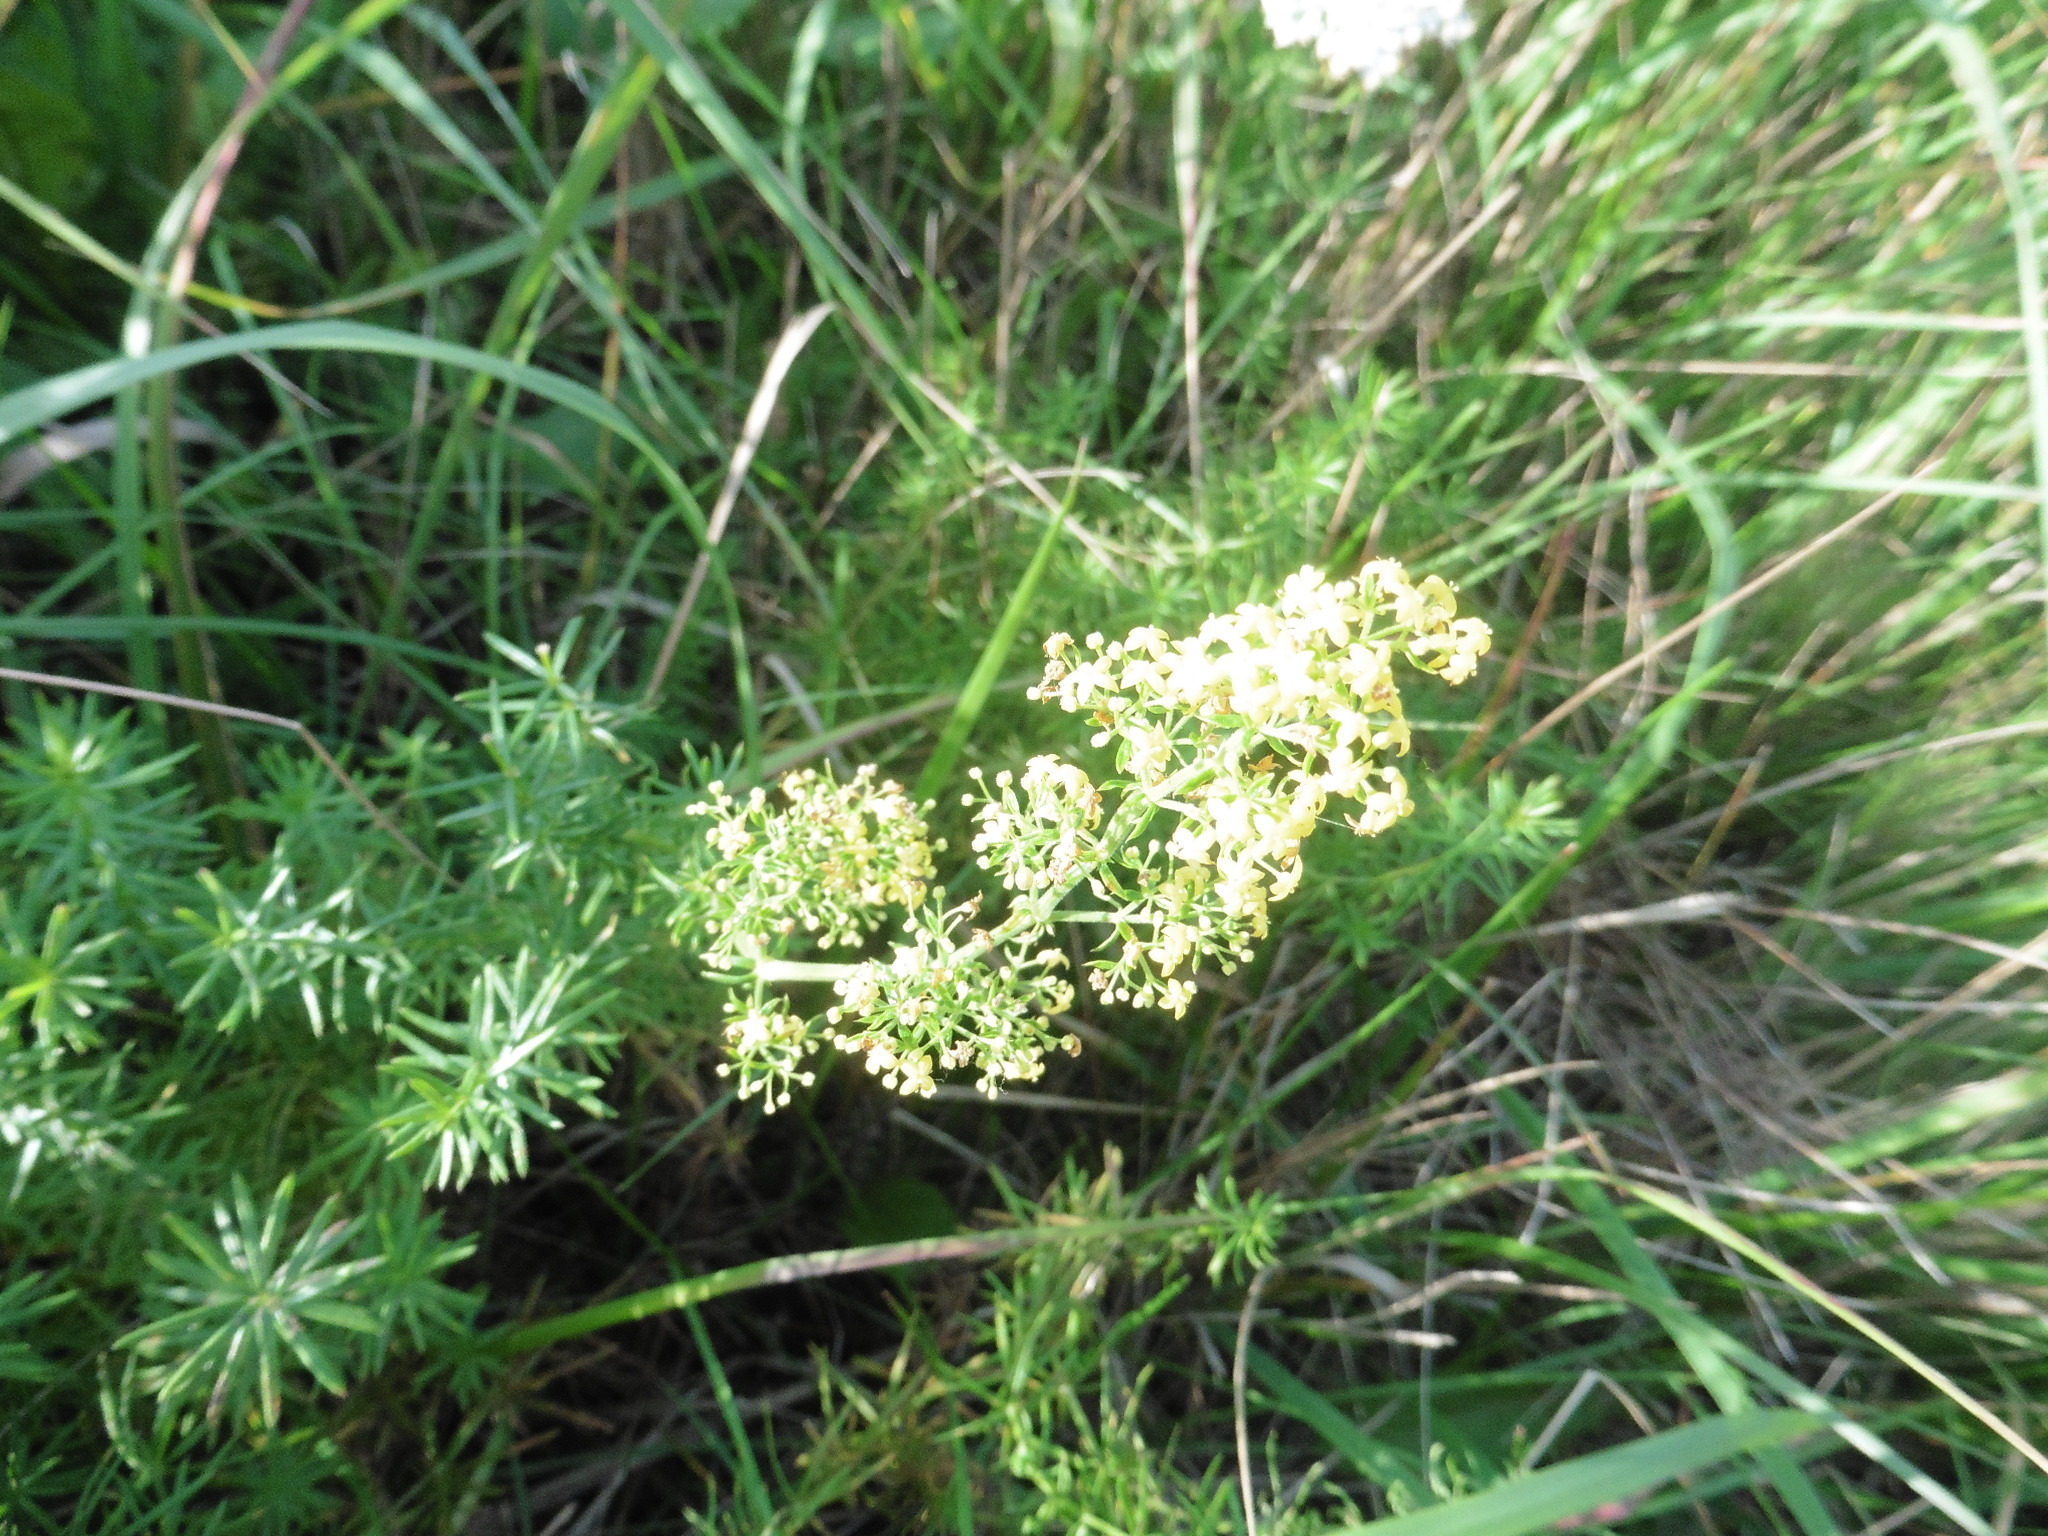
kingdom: Plantae
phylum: Tracheophyta
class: Magnoliopsida
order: Gentianales
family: Rubiaceae
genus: Galium
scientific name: Galium verum
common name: Lady's bedstraw
